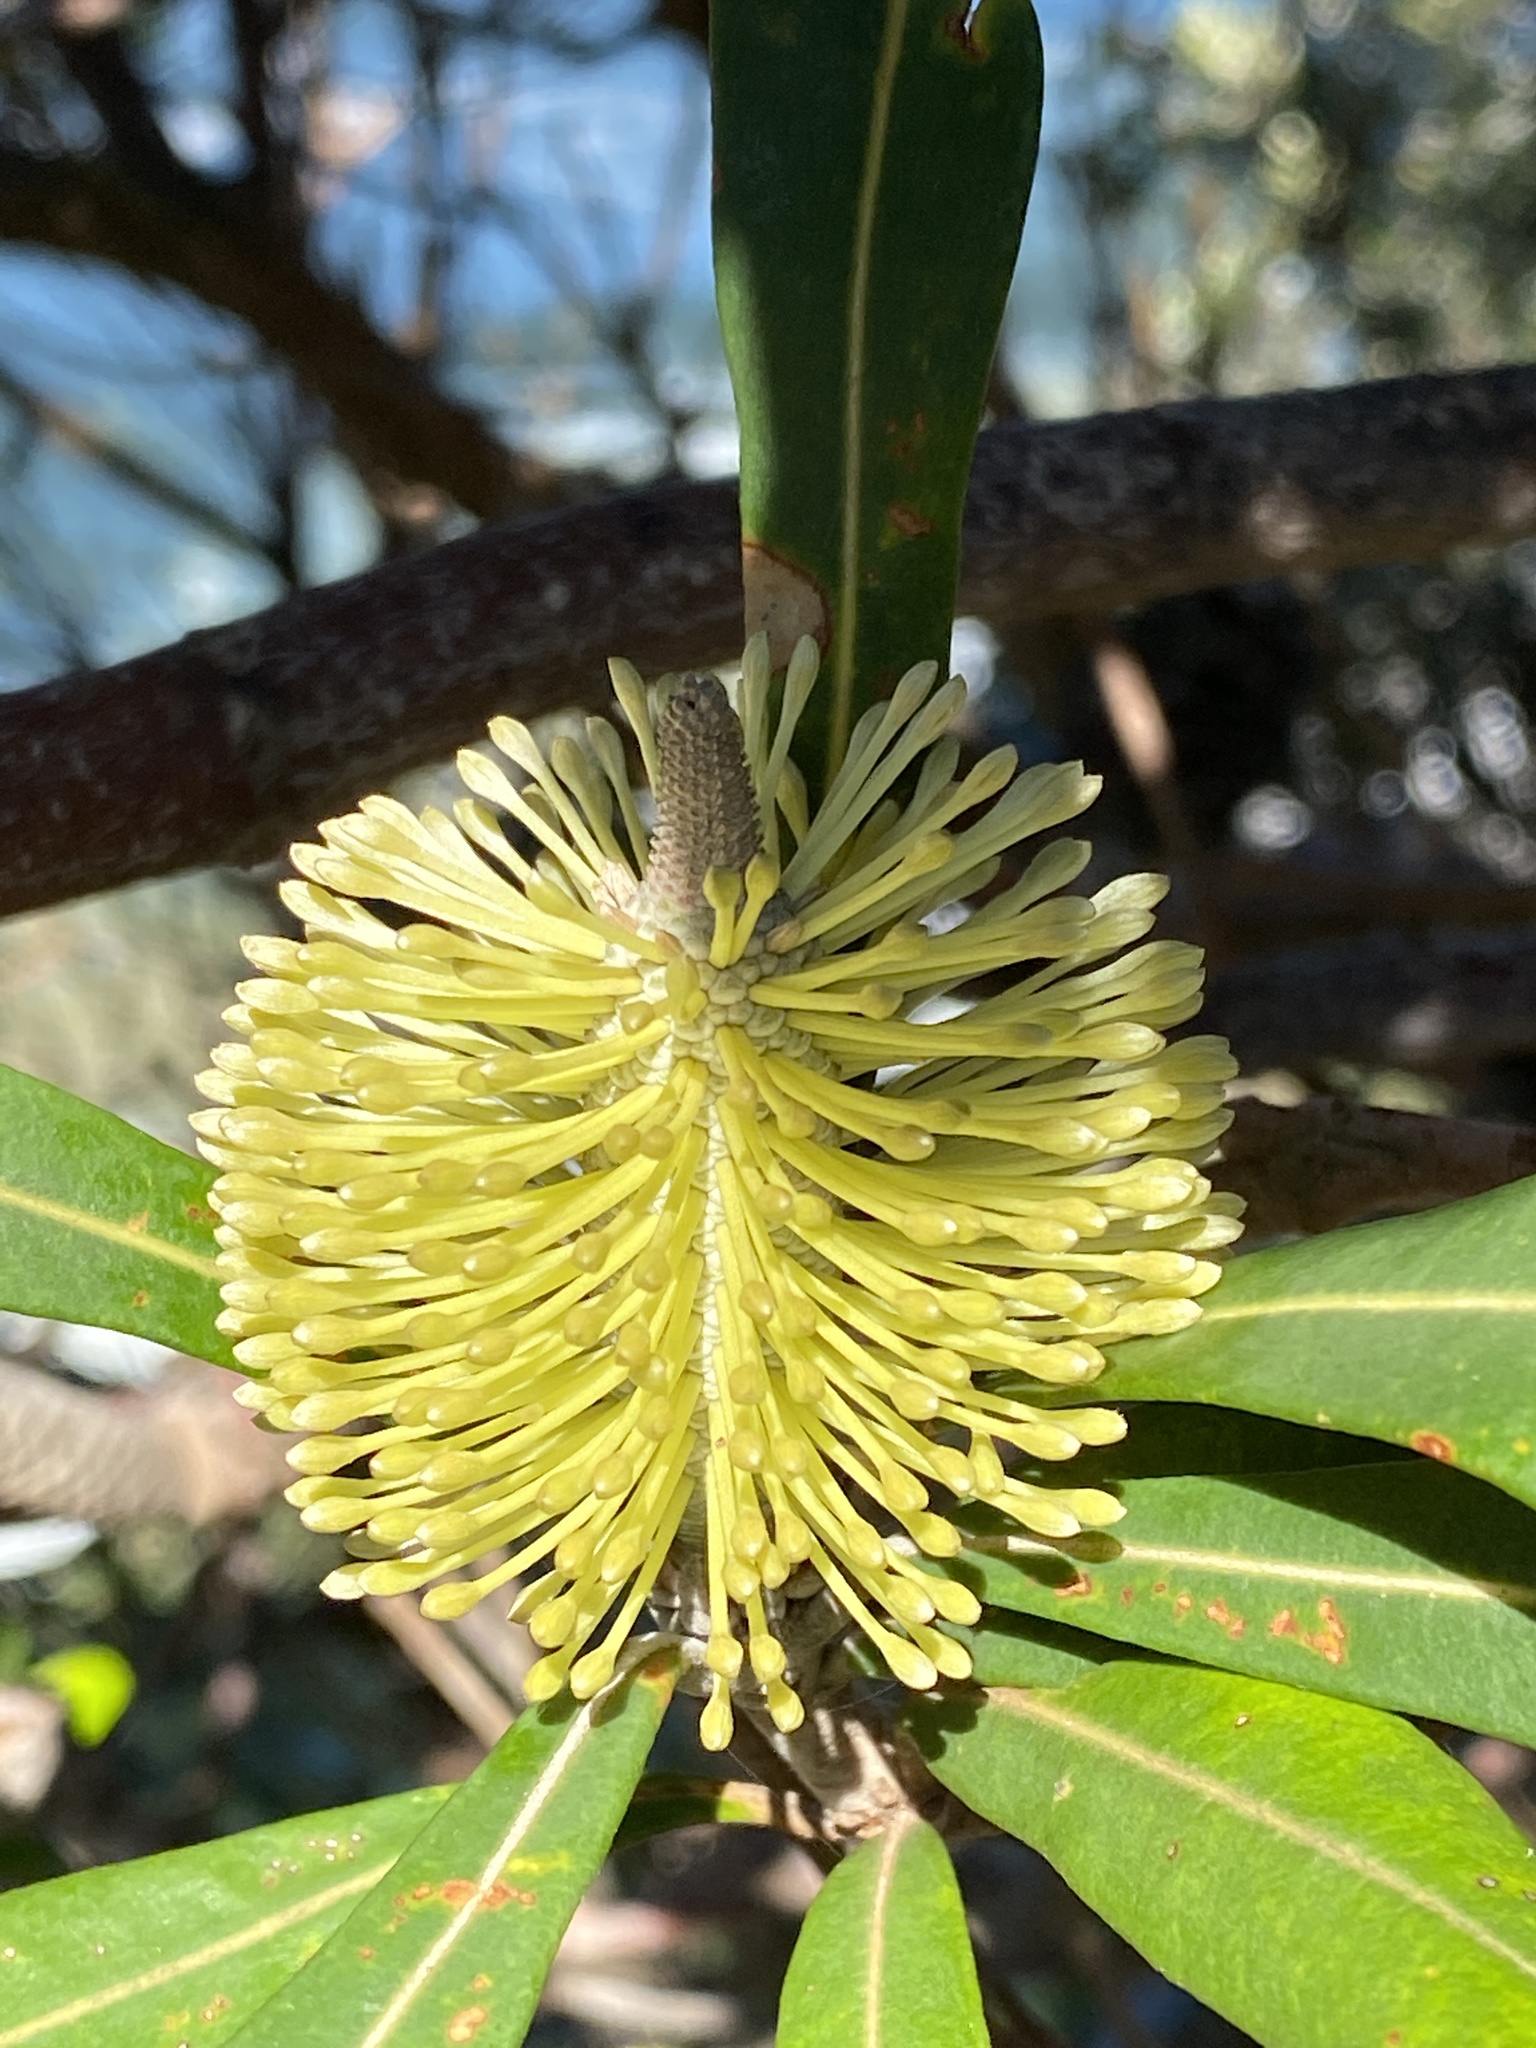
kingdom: Plantae
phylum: Tracheophyta
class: Magnoliopsida
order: Proteales
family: Proteaceae
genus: Banksia
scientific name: Banksia integrifolia
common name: White-honeysuckle
